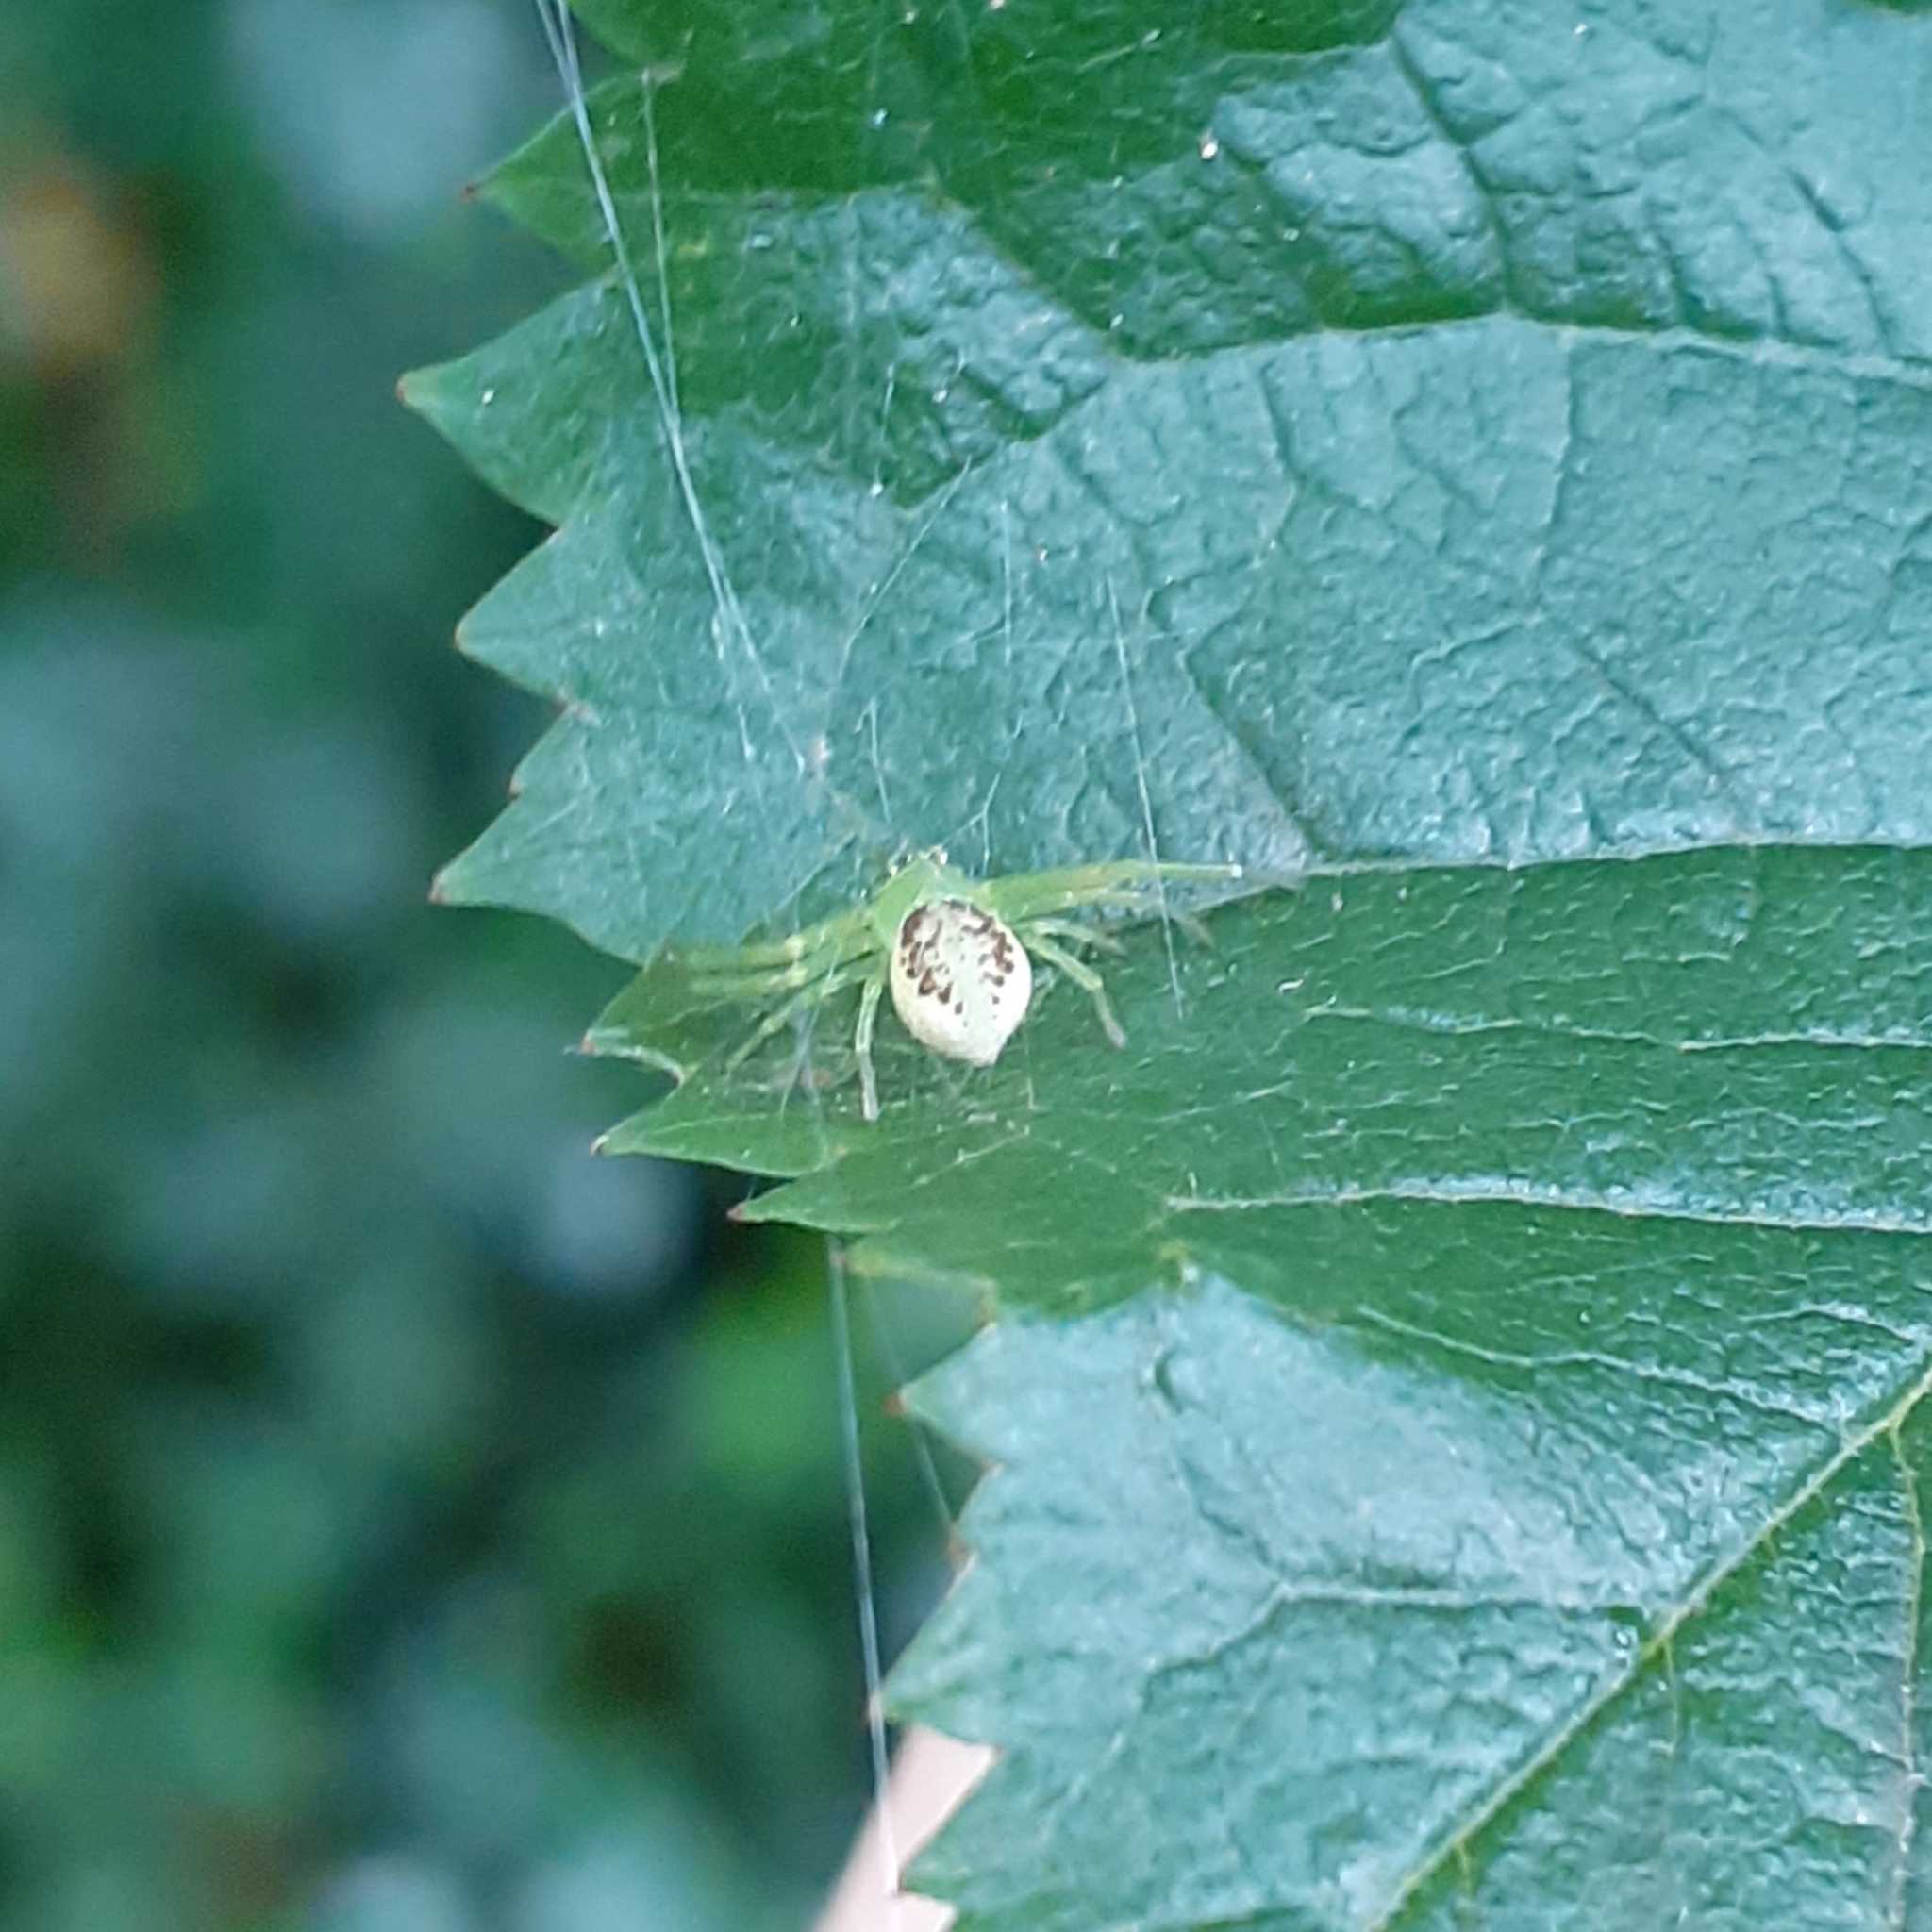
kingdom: Animalia
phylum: Arthropoda
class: Arachnida
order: Araneae
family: Thomisidae
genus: Diaea
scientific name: Diaea dorsata
